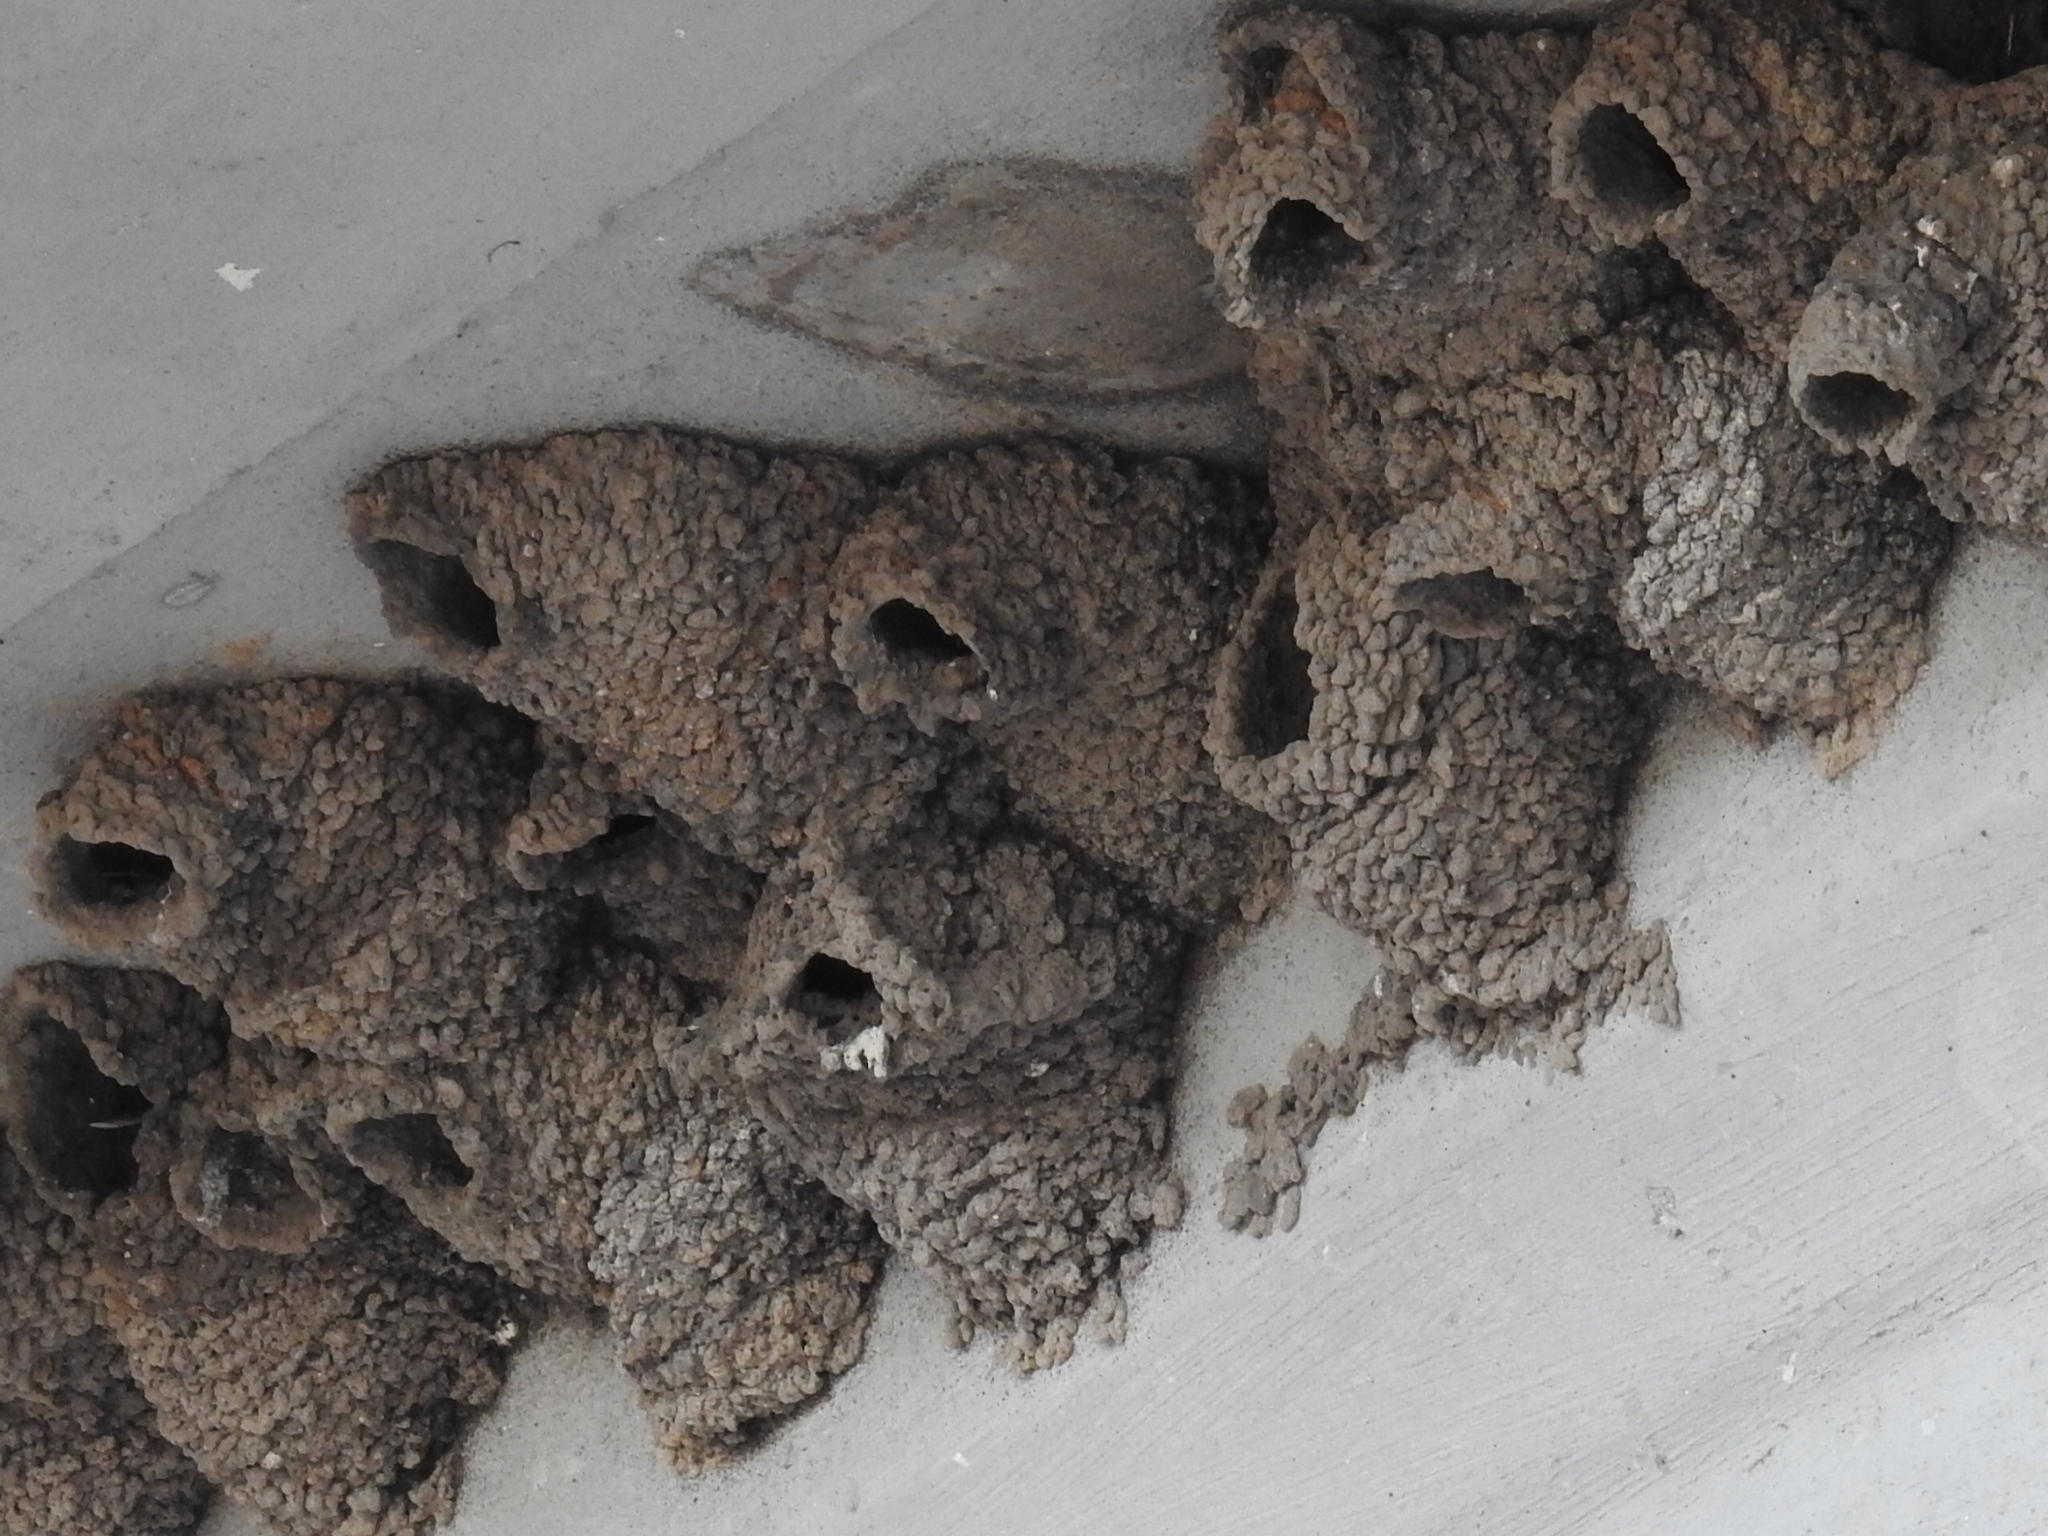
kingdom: Animalia
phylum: Chordata
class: Aves
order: Passeriformes
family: Hirundinidae
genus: Petrochelidon
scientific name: Petrochelidon pyrrhonota
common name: American cliff swallow
